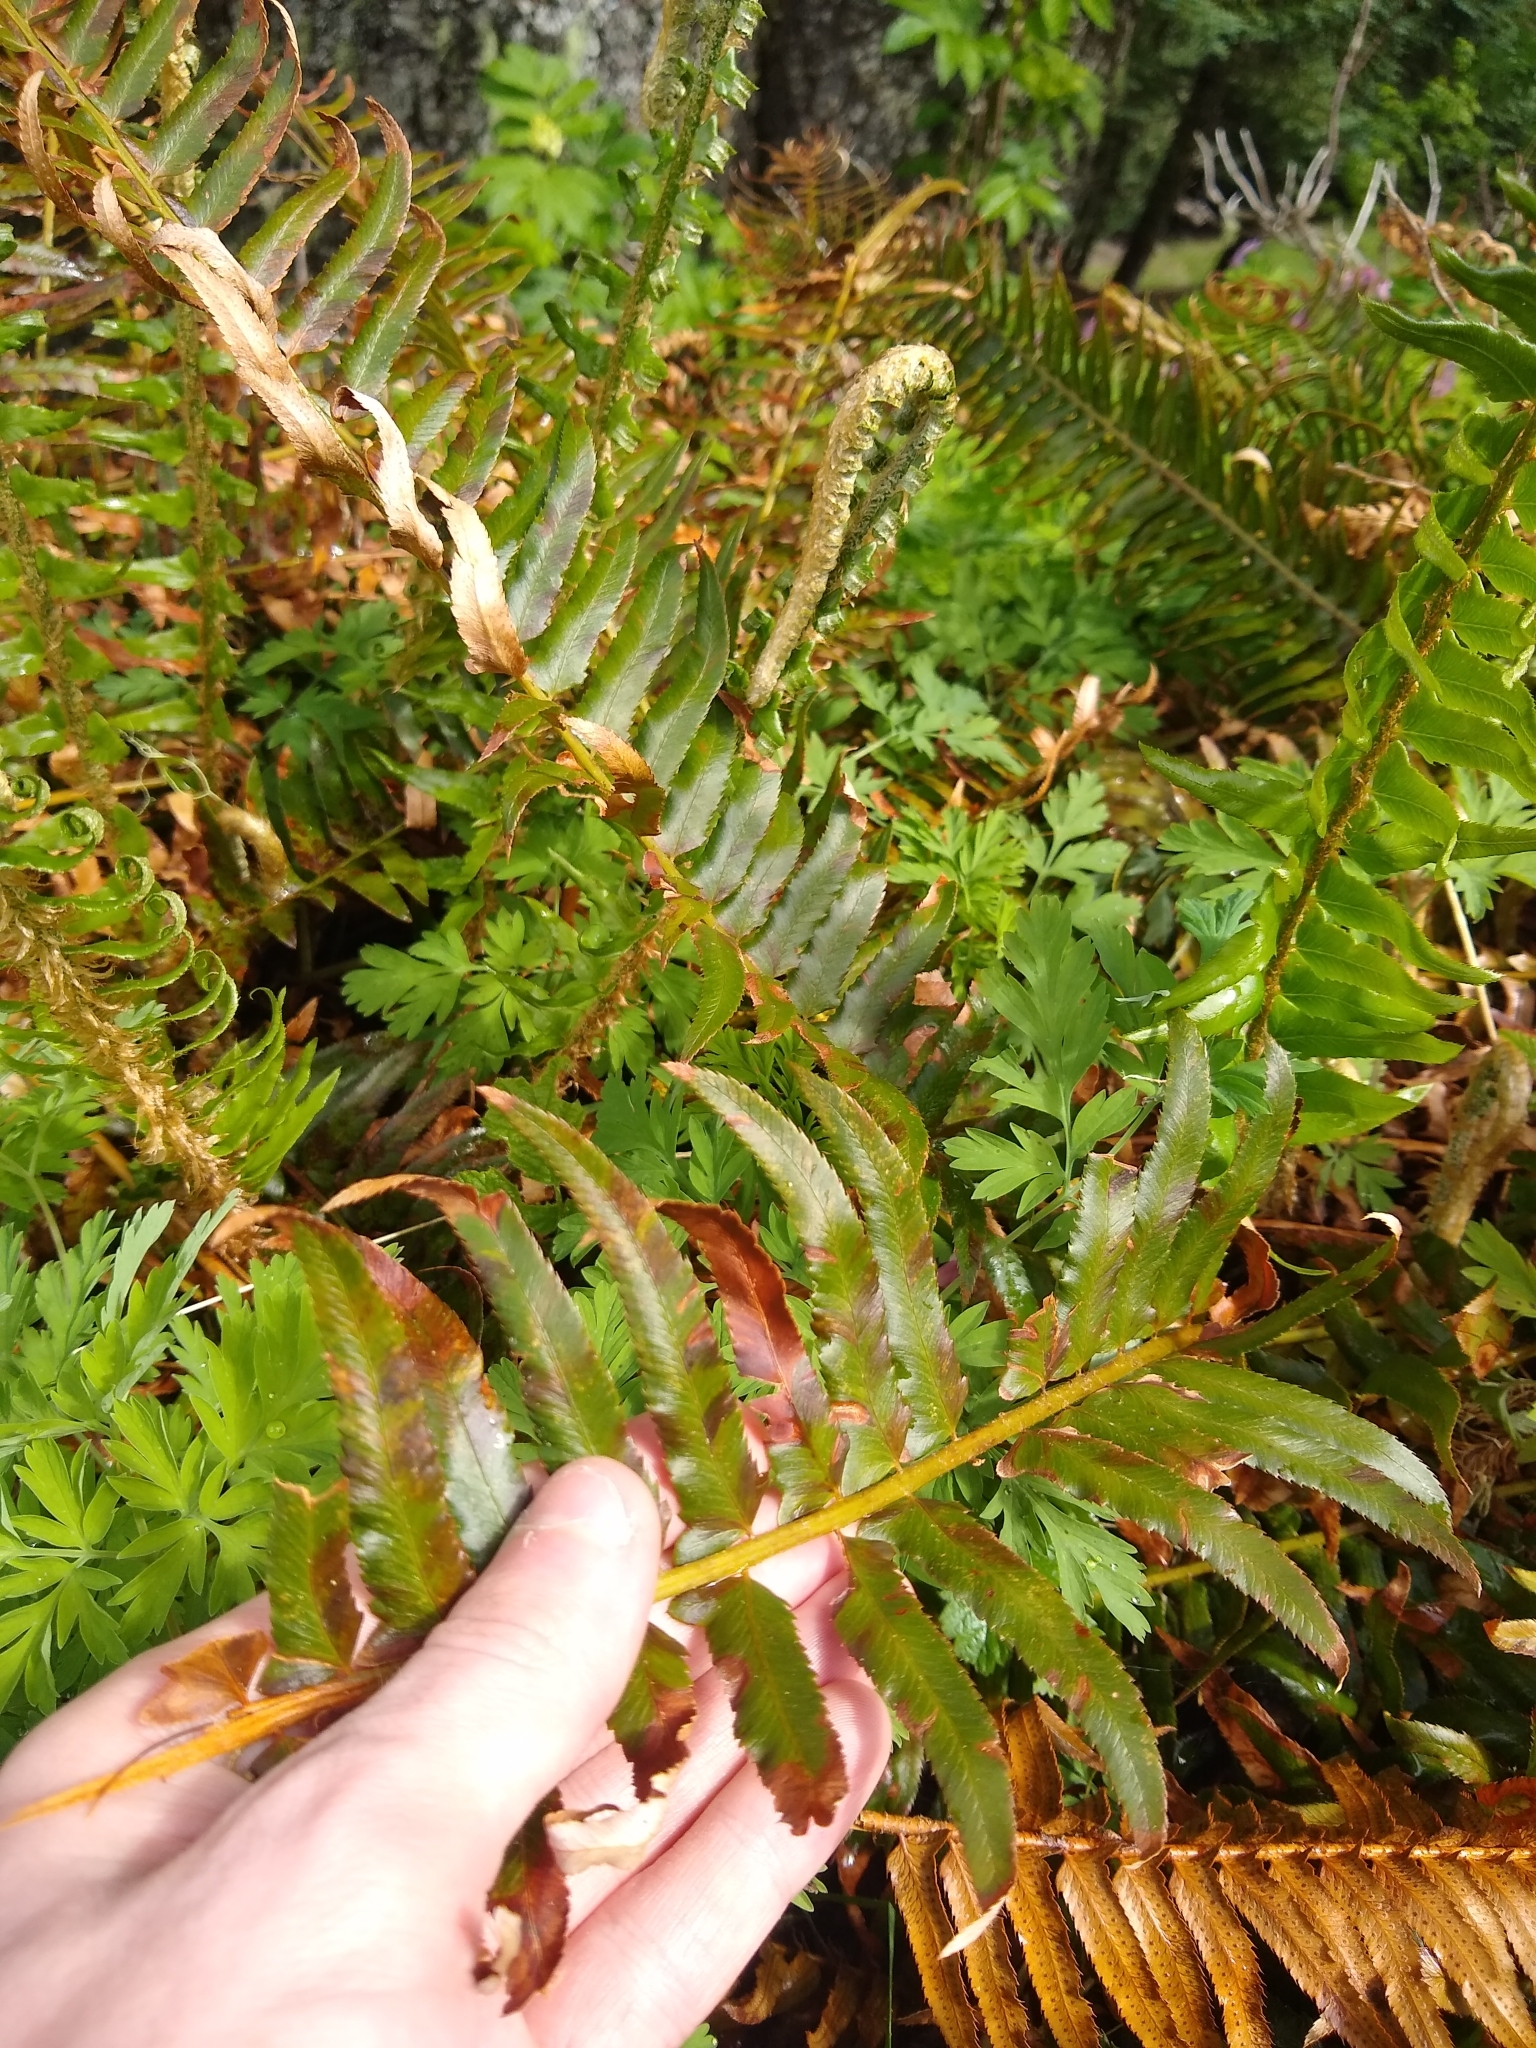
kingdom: Plantae
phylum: Tracheophyta
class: Polypodiopsida
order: Polypodiales
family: Dryopteridaceae
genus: Polystichum
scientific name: Polystichum munitum
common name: Western sword-fern
